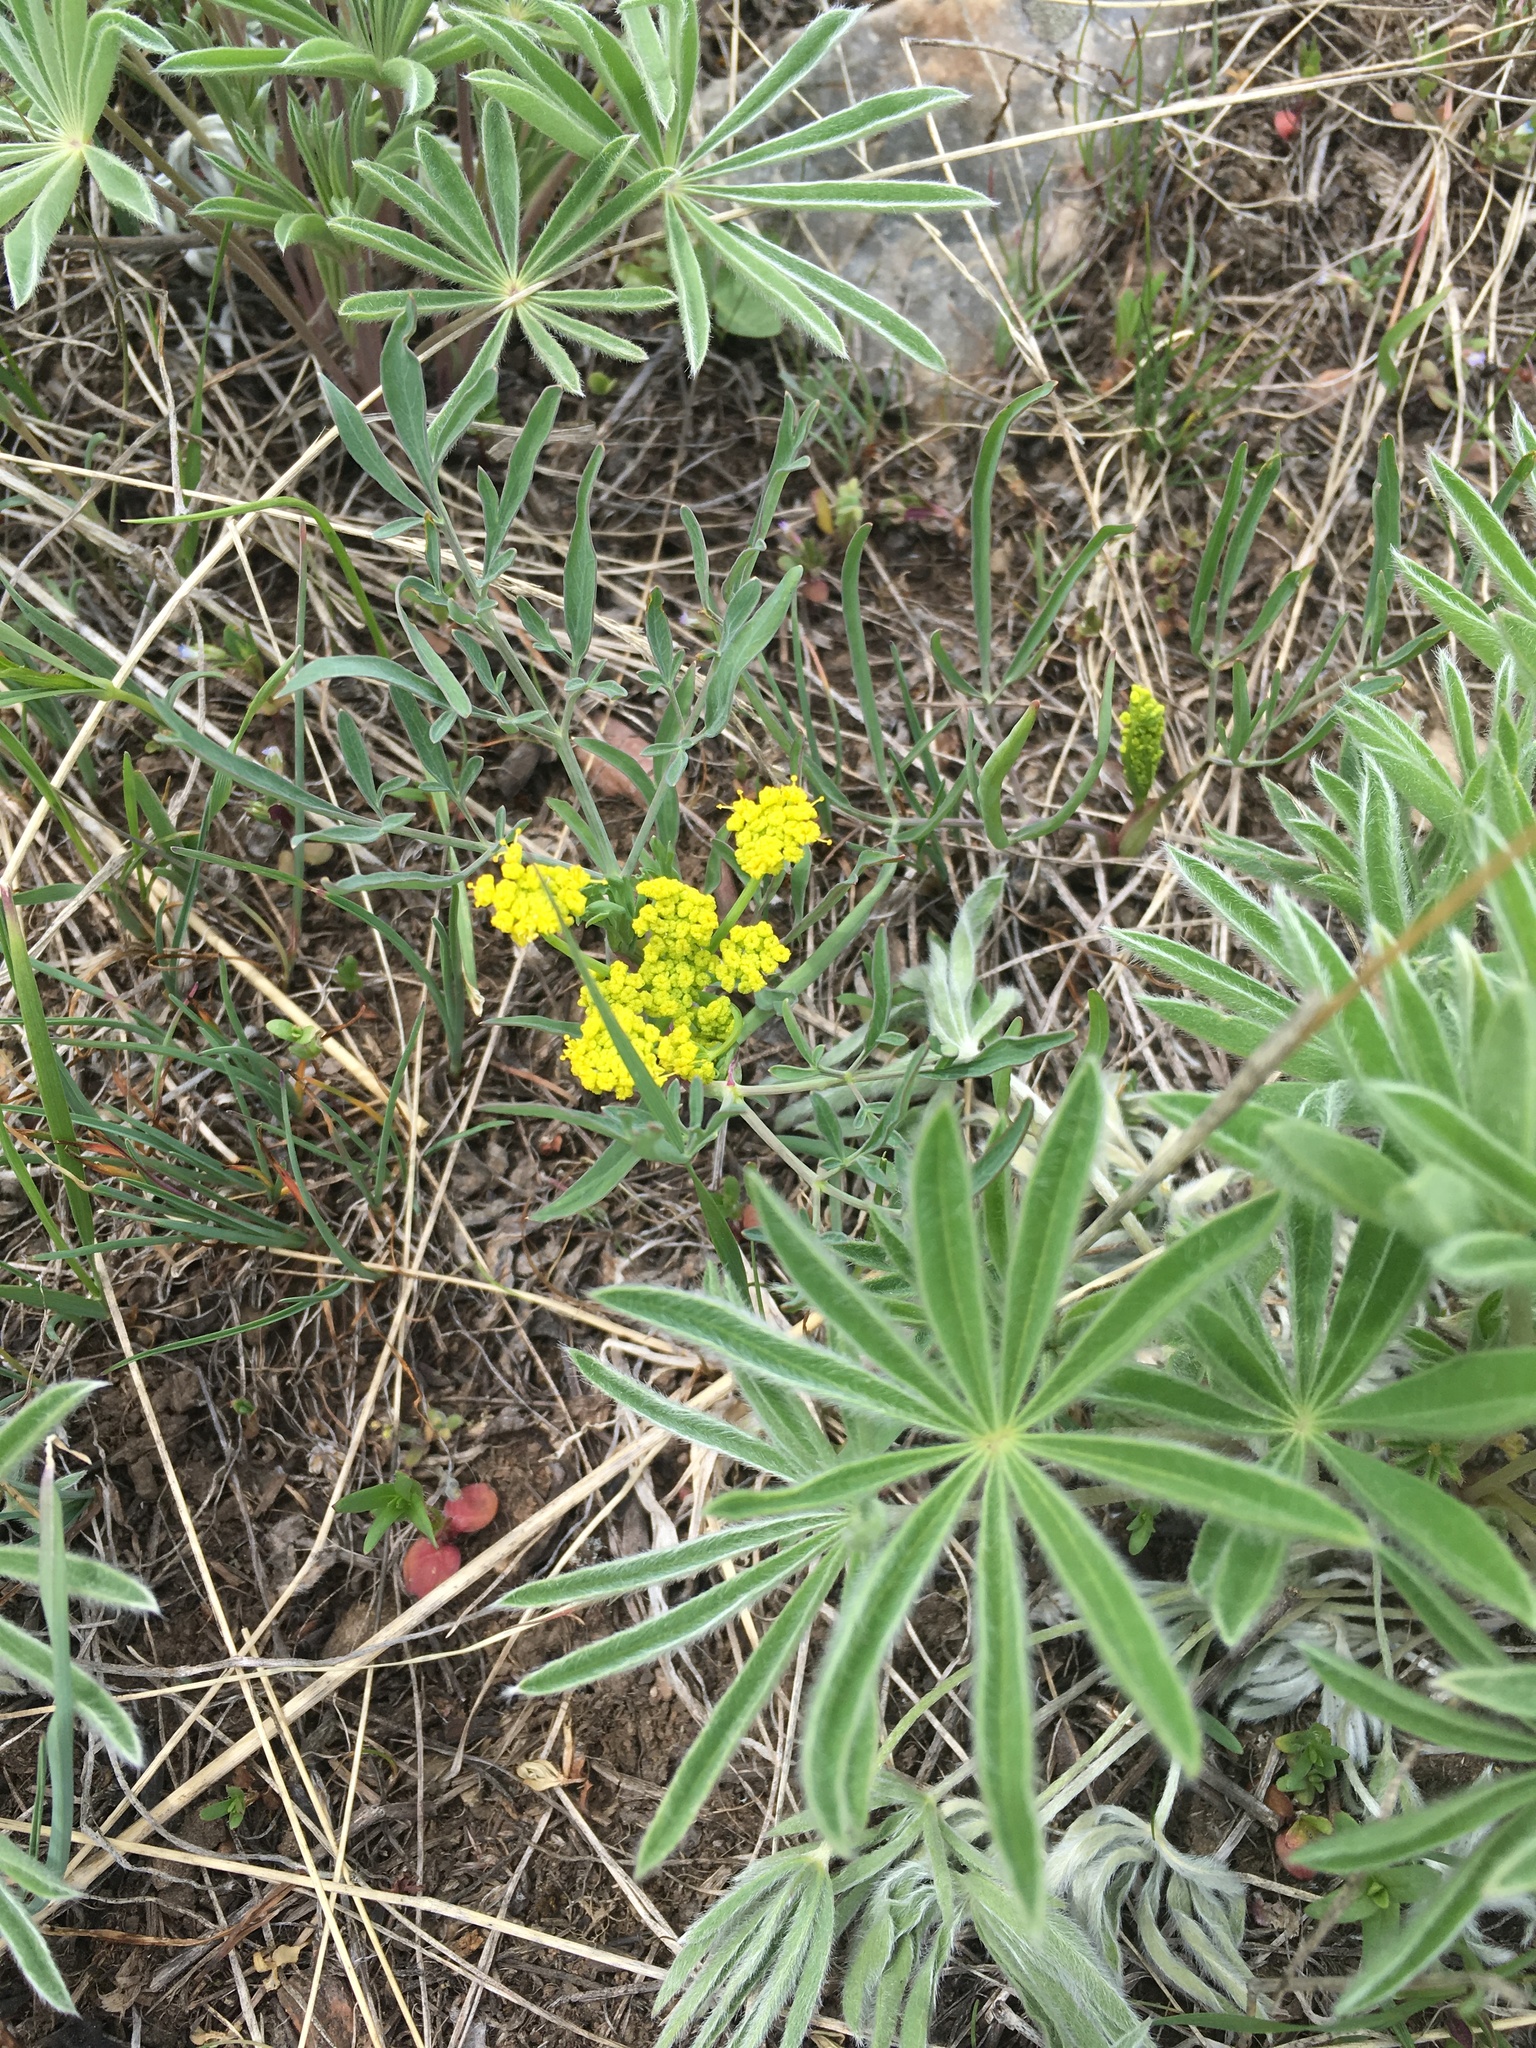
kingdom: Plantae
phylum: Tracheophyta
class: Magnoliopsida
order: Apiales
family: Apiaceae
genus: Lomatium
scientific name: Lomatium triternatum
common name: Ternate lomatium
